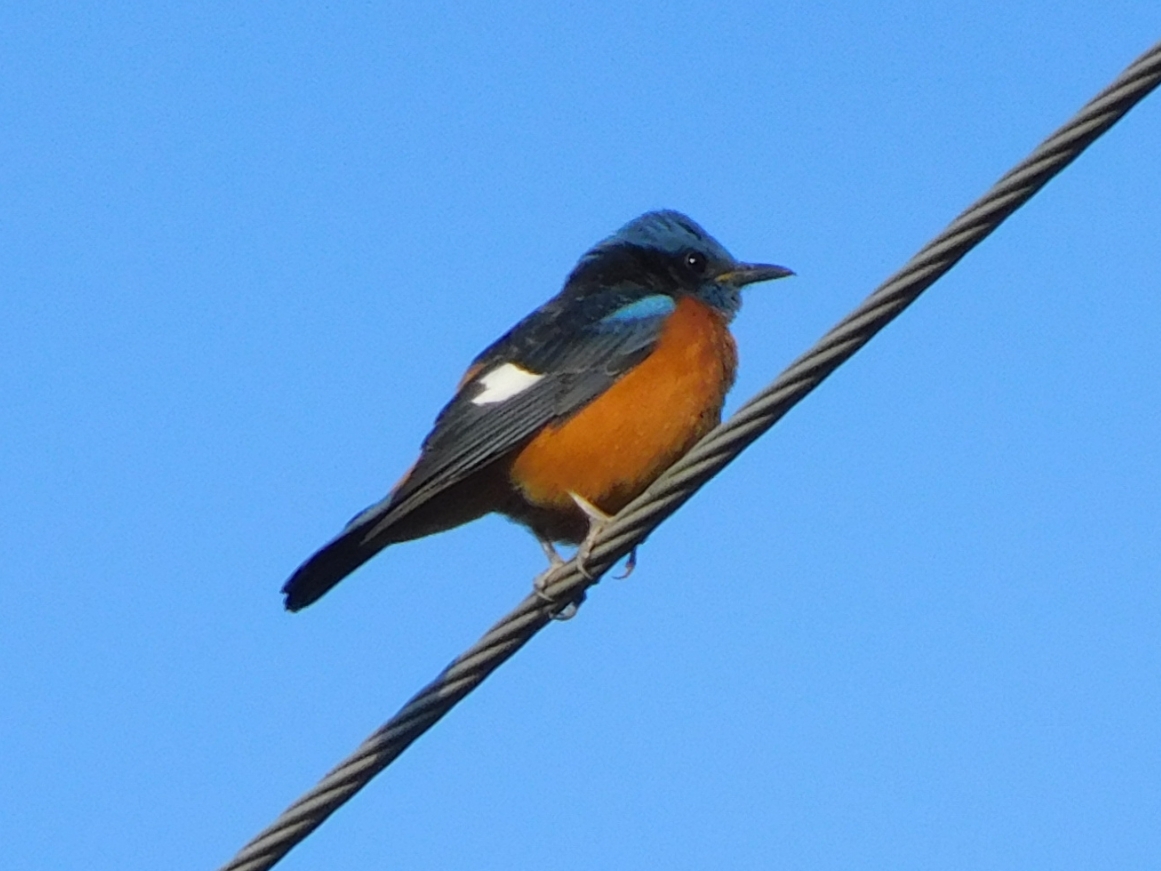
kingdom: Animalia
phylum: Chordata
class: Aves
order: Passeriformes
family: Muscicapidae
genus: Monticola
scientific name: Monticola cinclorhynchus
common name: Blue-capped rock thrush
